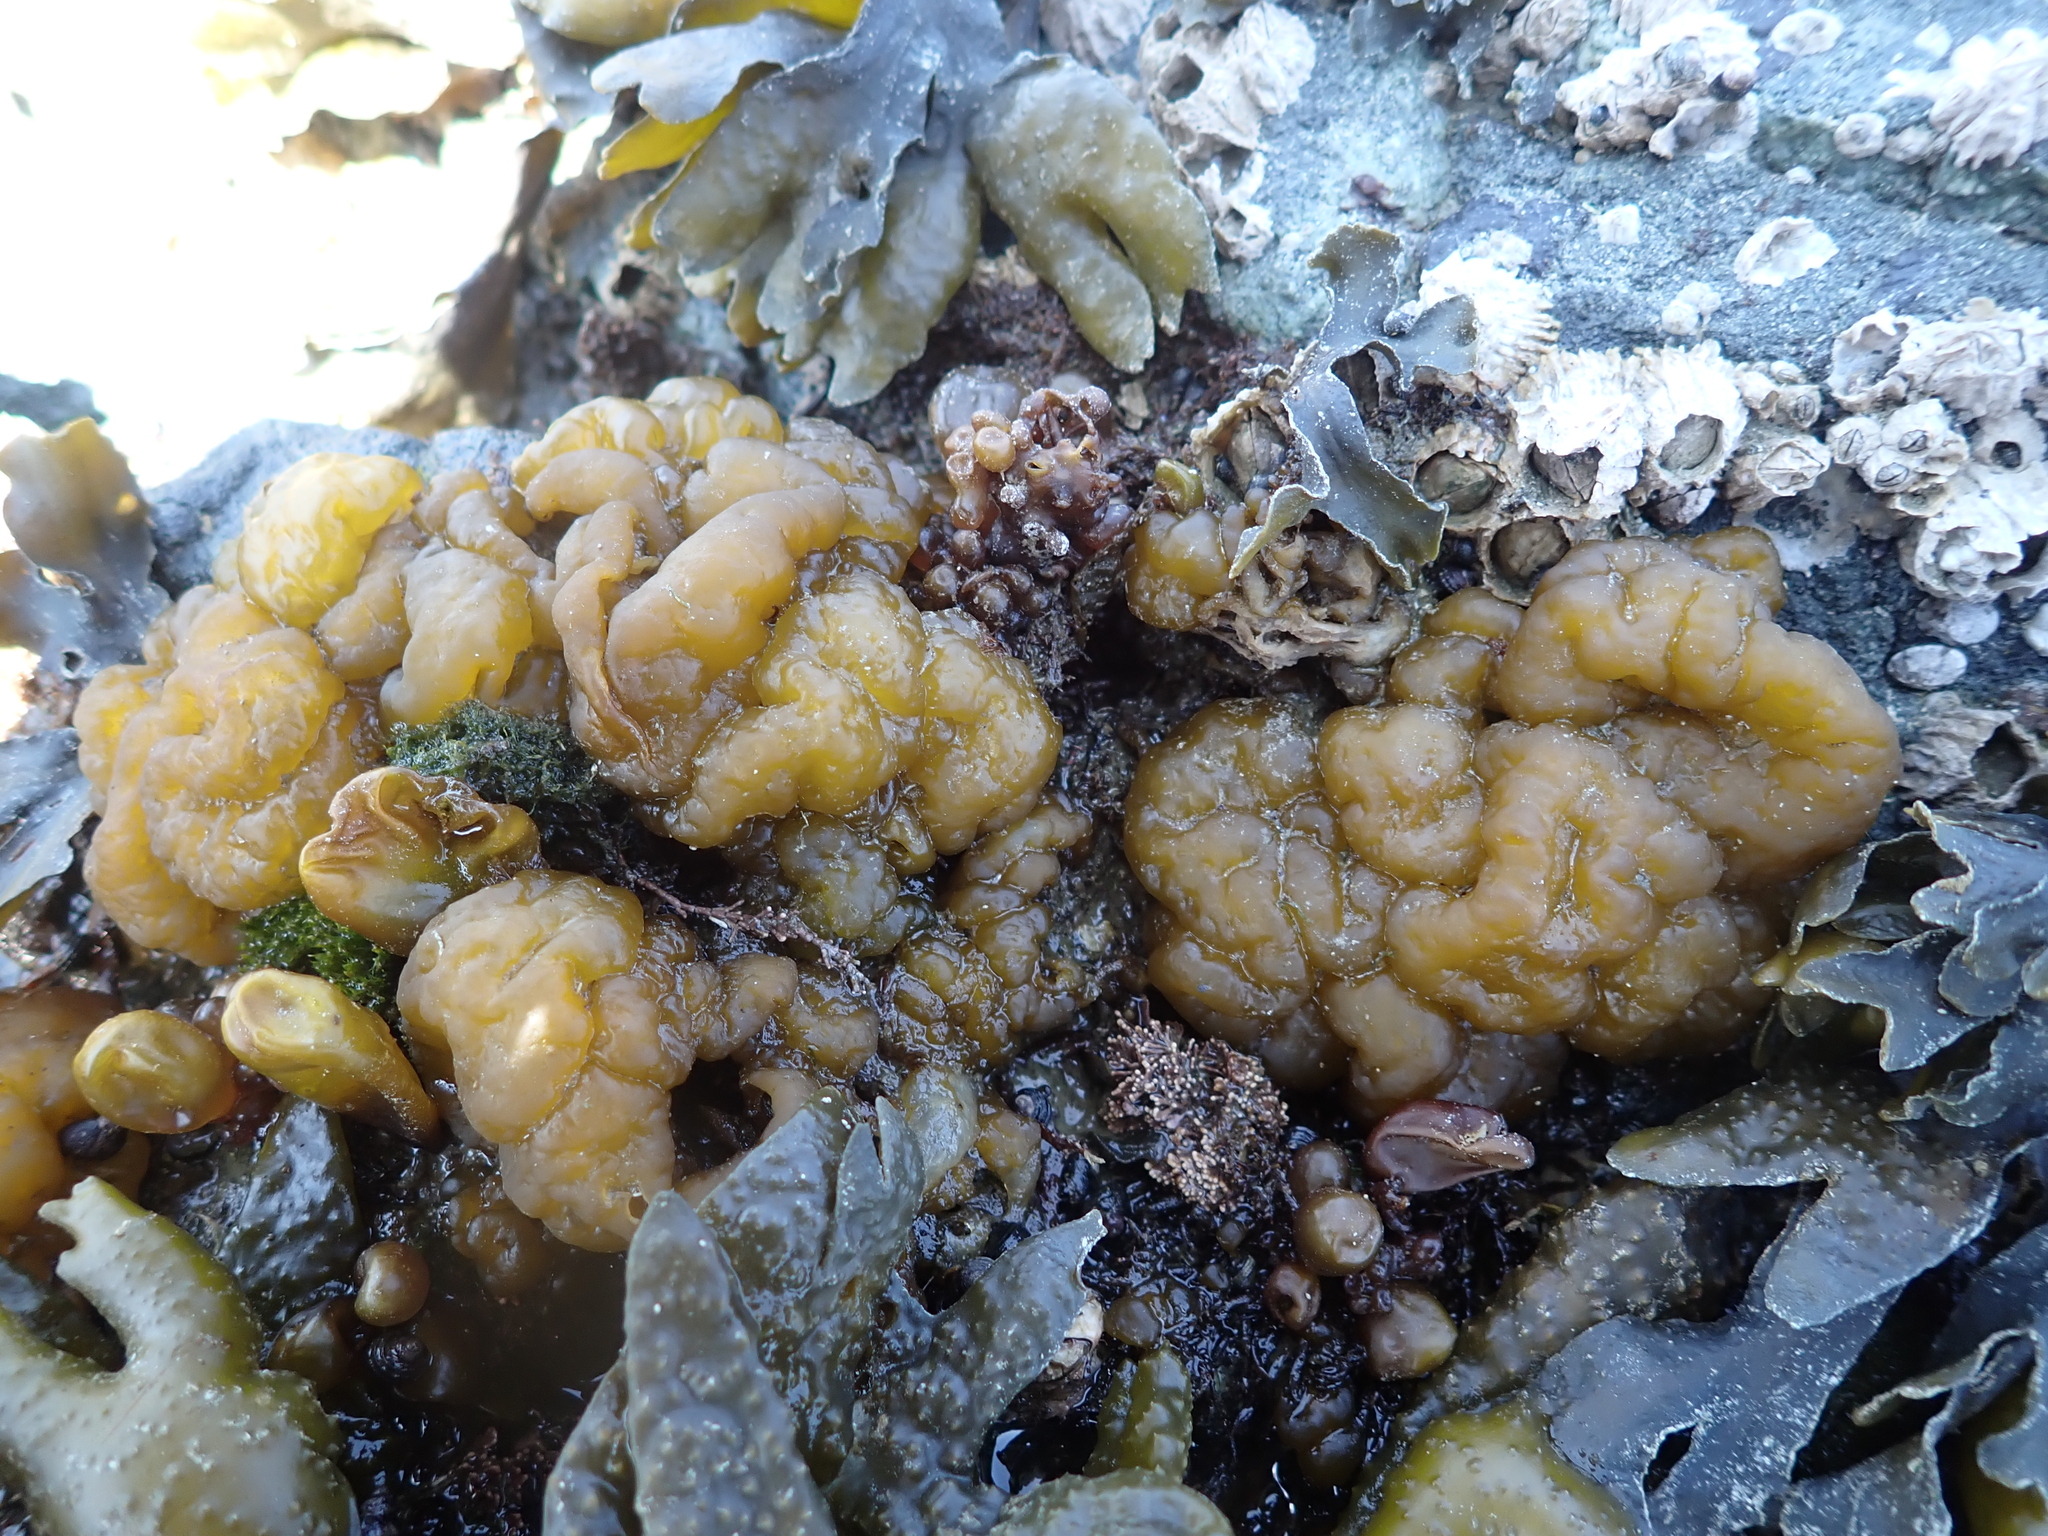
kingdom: Chromista
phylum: Ochrophyta
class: Phaeophyceae
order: Ectocarpales
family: Chordariaceae
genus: Leathesia
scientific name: Leathesia marina
